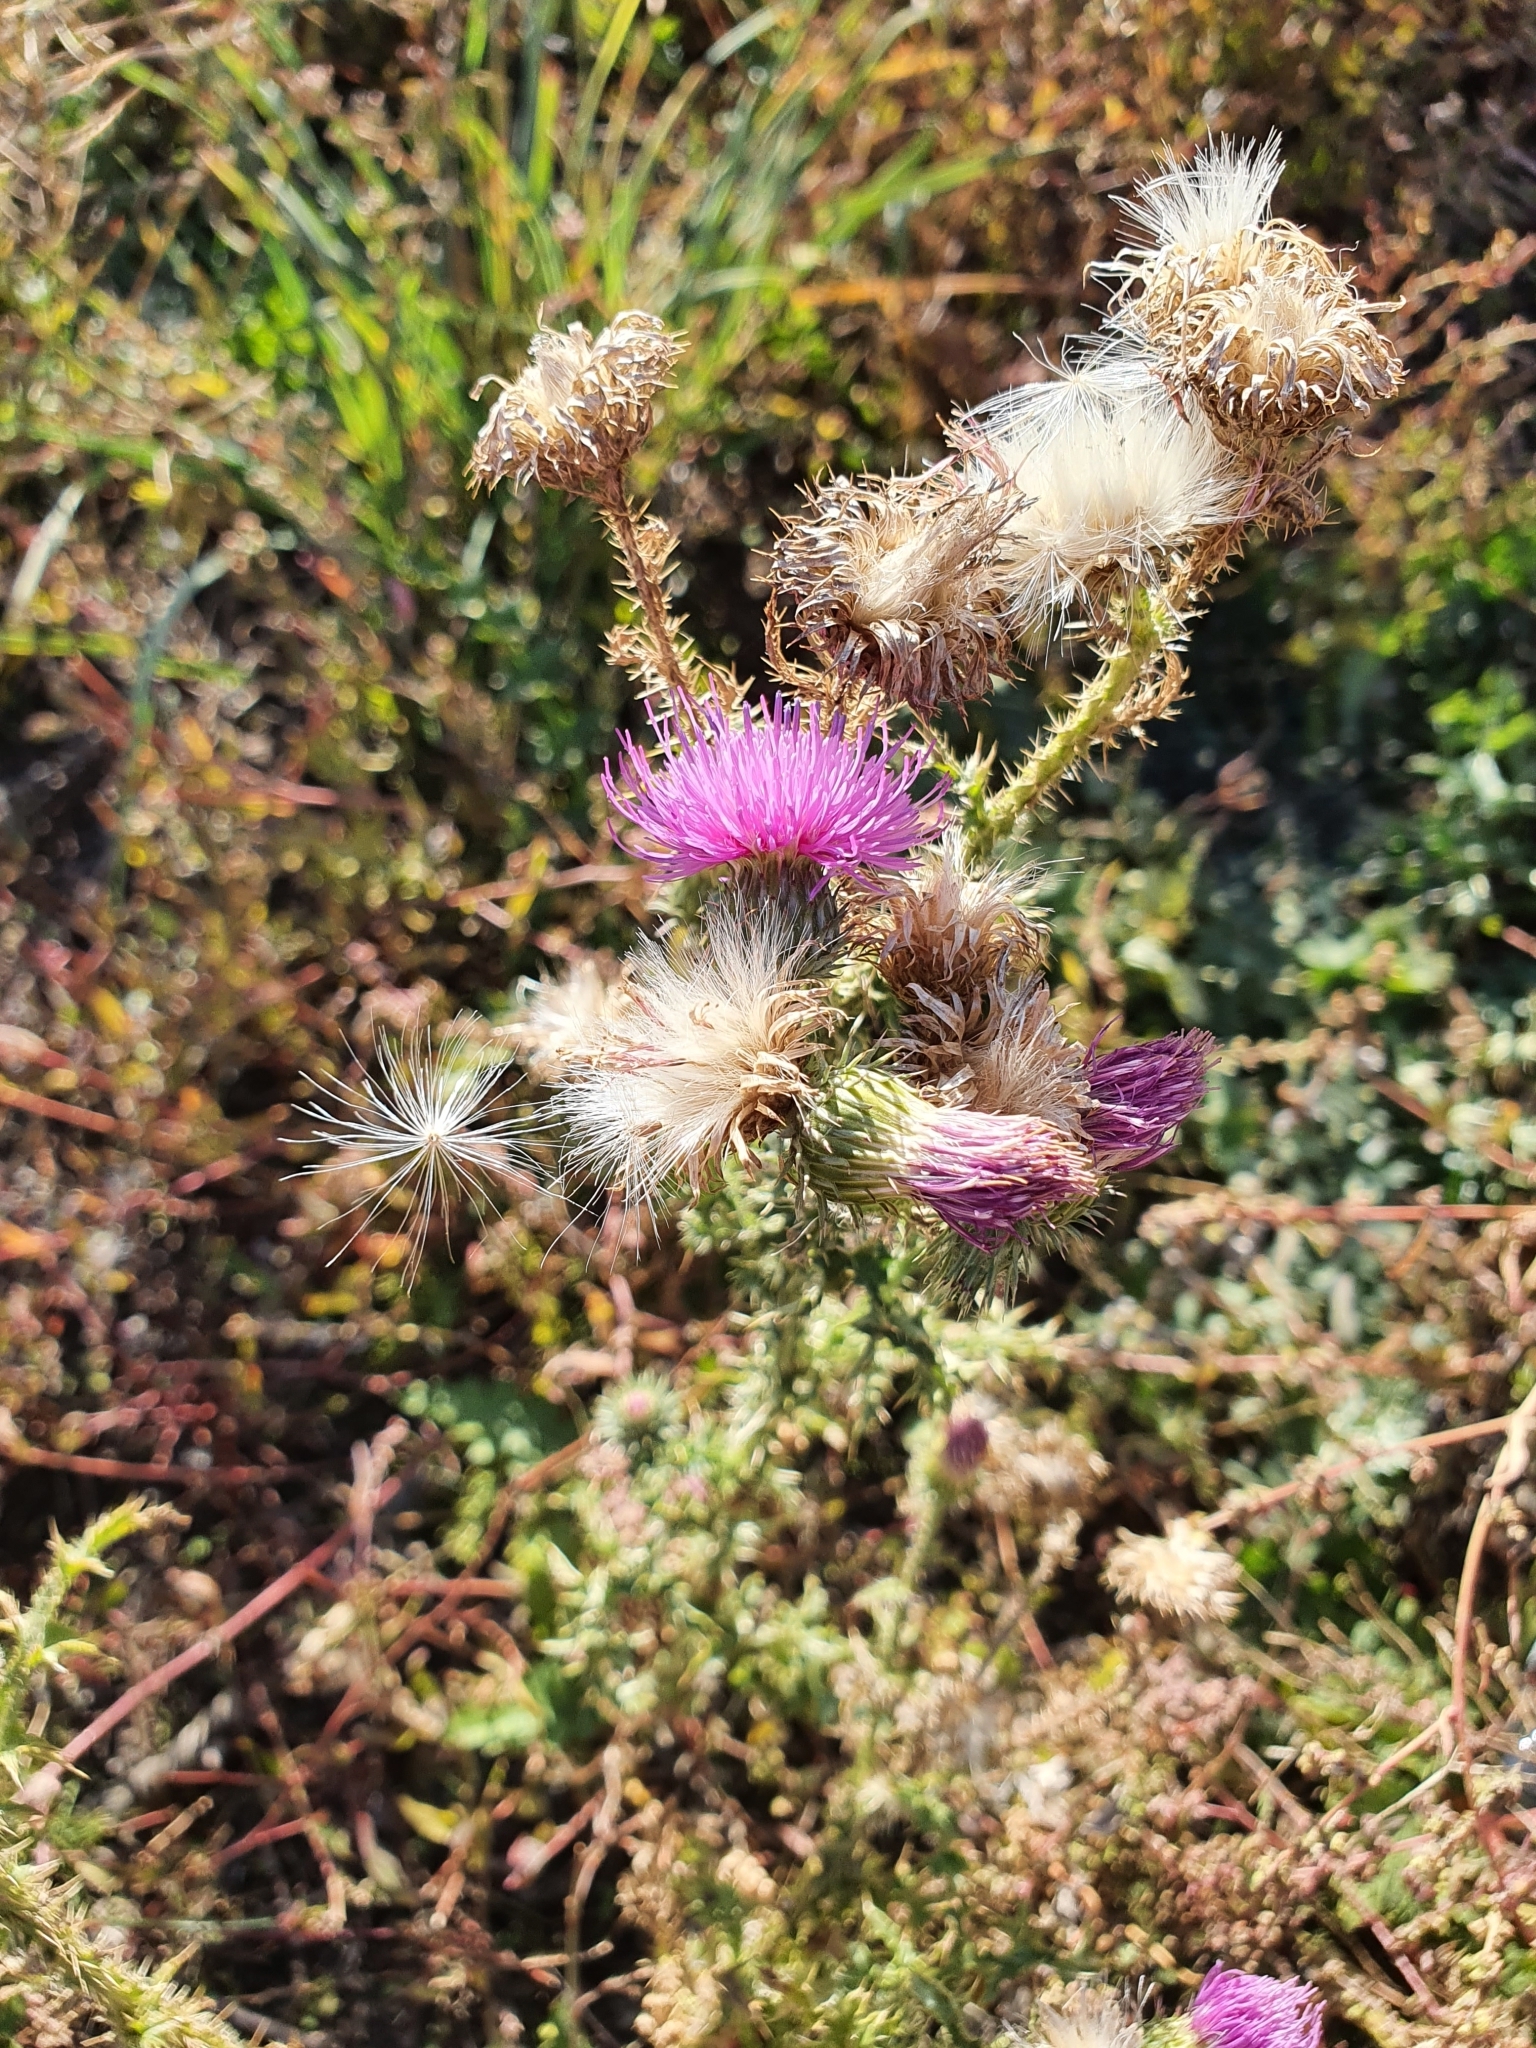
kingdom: Plantae
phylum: Tracheophyta
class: Magnoliopsida
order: Asterales
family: Asteraceae
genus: Carduus
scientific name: Carduus acanthoides
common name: Plumeless thistle
